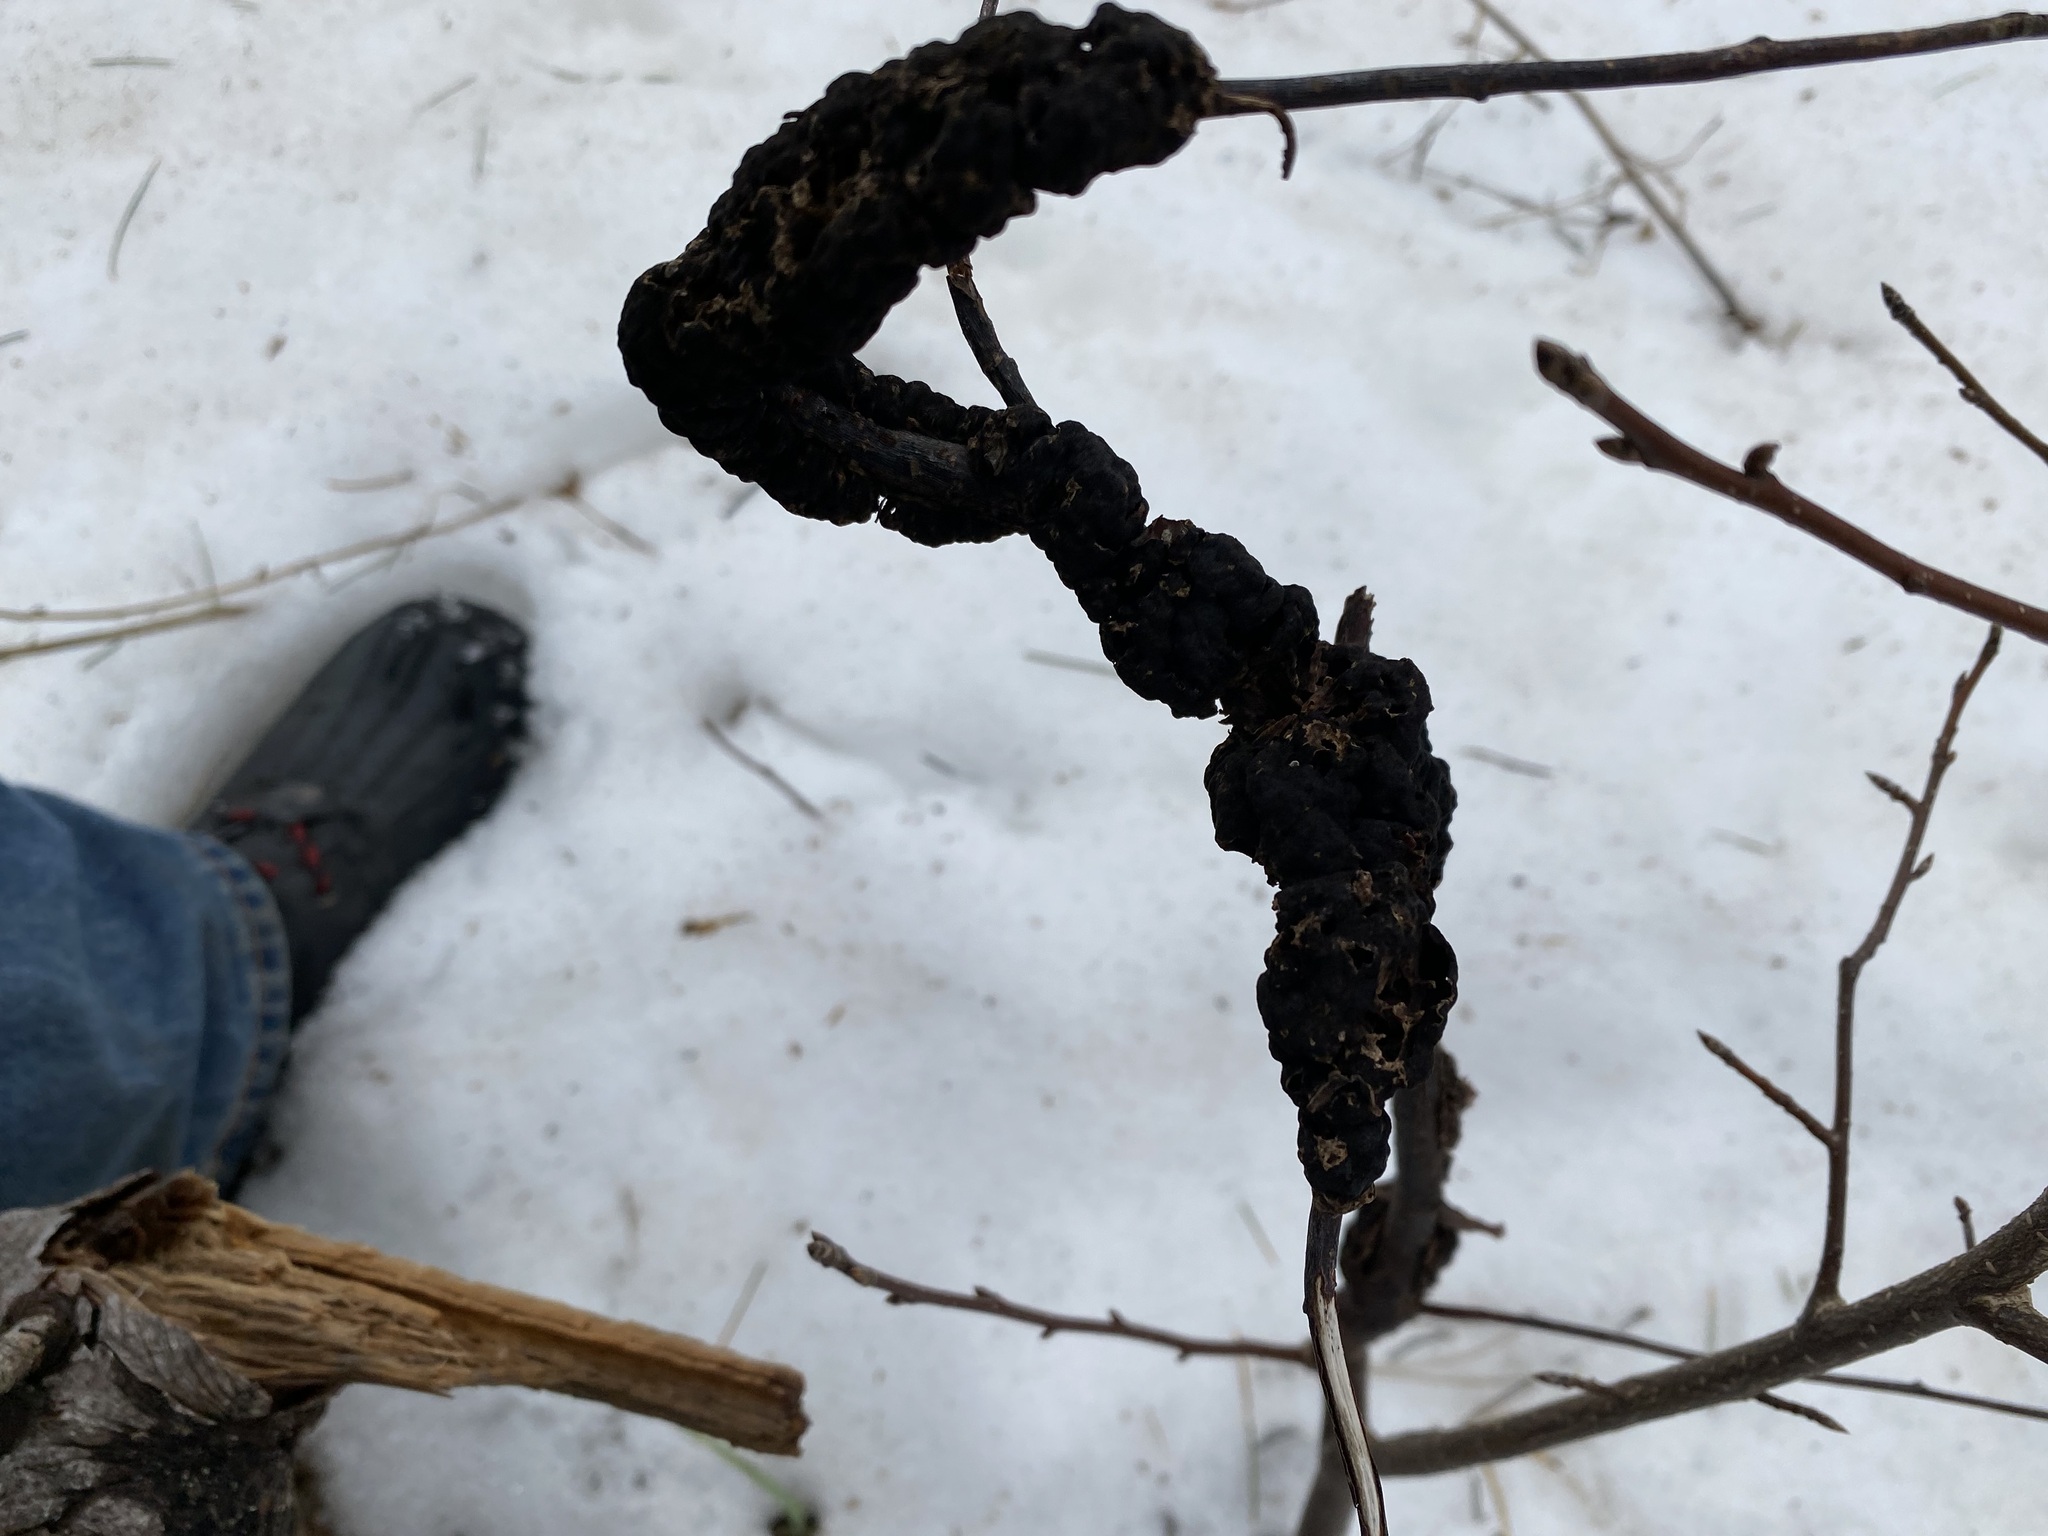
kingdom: Fungi
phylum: Ascomycota
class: Dothideomycetes
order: Venturiales
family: Venturiaceae
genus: Apiosporina
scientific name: Apiosporina morbosa
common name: Black knot
